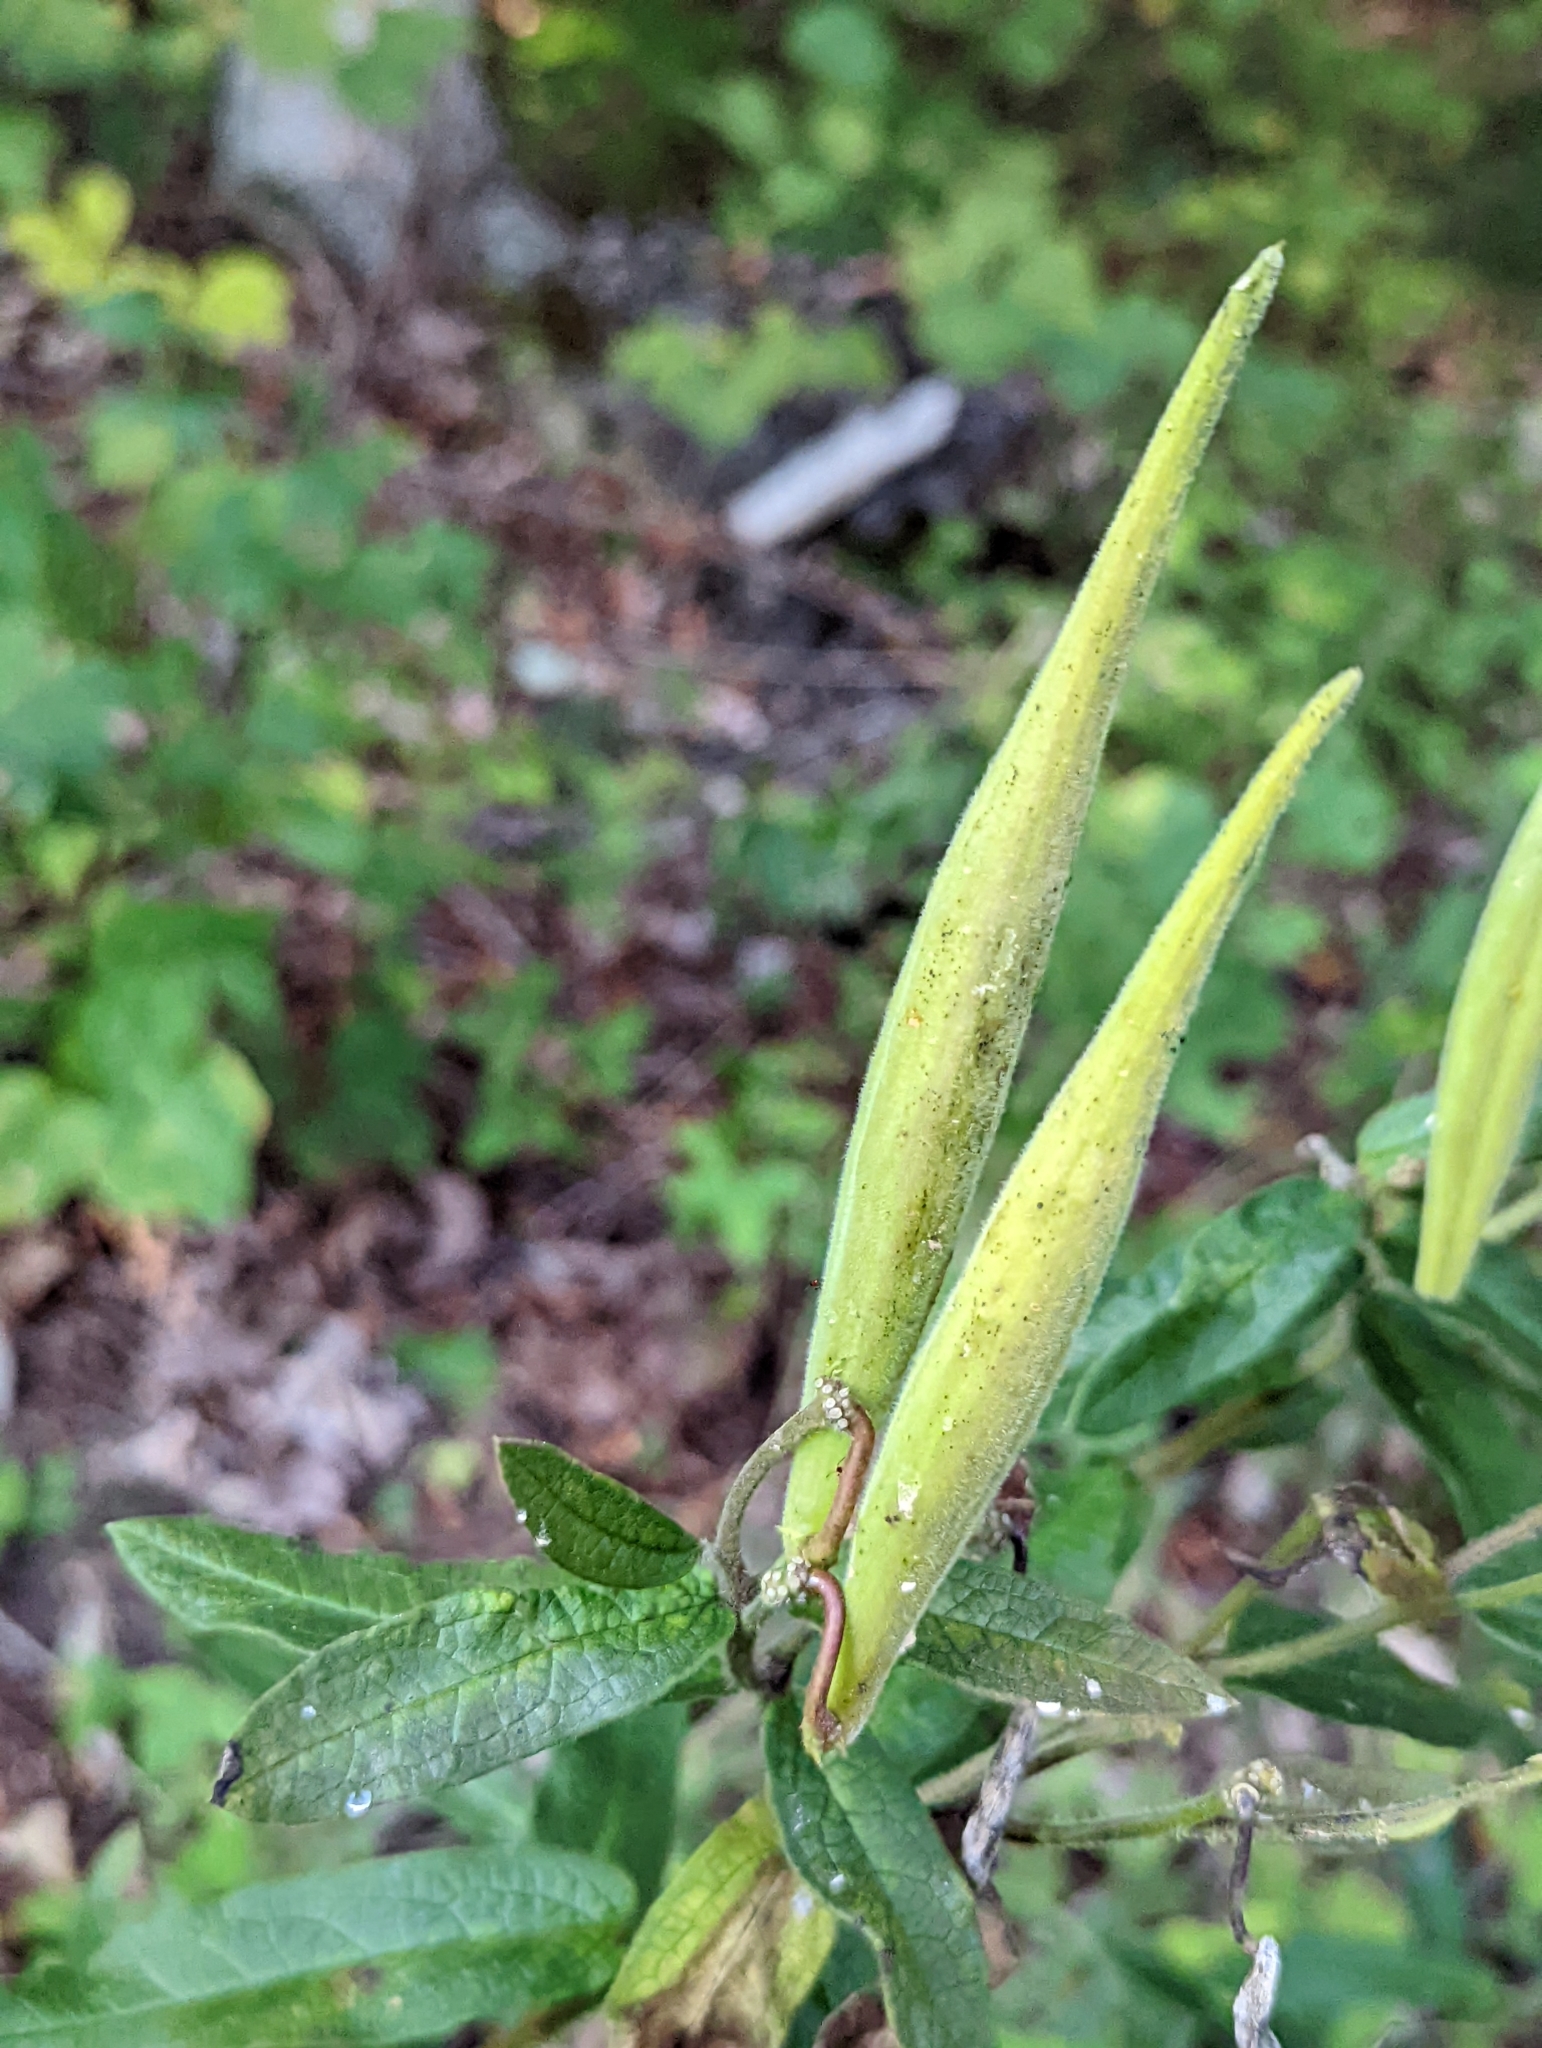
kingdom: Plantae
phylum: Tracheophyta
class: Magnoliopsida
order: Gentianales
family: Apocynaceae
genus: Asclepias
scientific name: Asclepias tuberosa
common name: Butterfly milkweed
